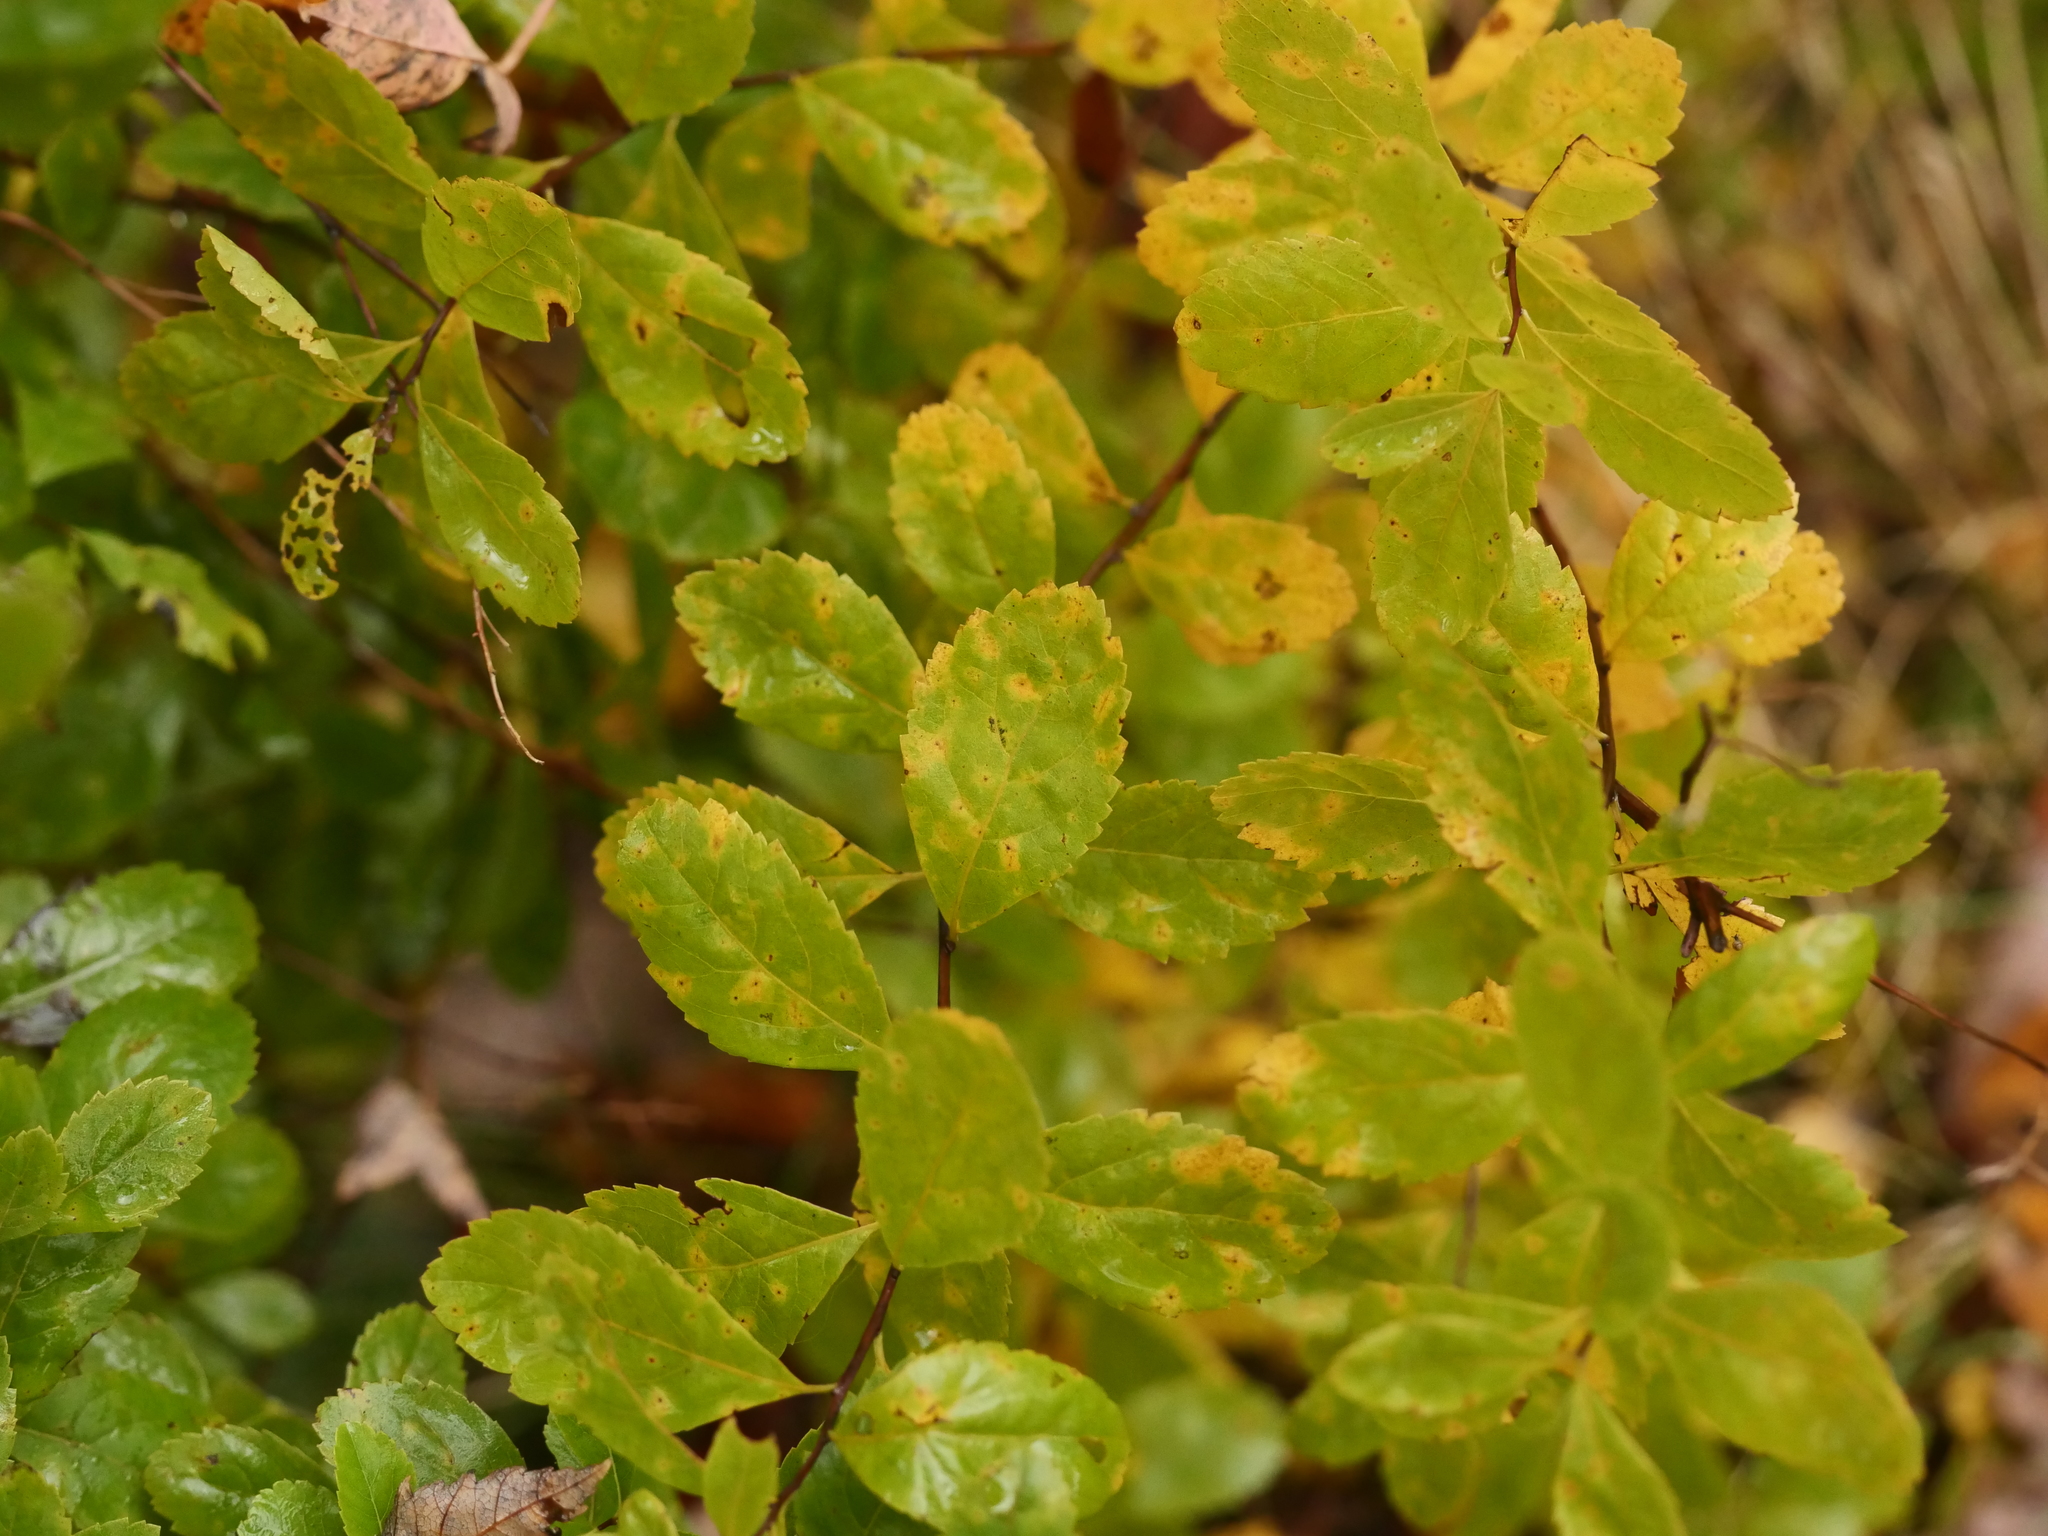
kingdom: Plantae
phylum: Tracheophyta
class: Magnoliopsida
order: Rosales
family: Rosaceae
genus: Spiraea
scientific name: Spiraea alba
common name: Pale bridewort
